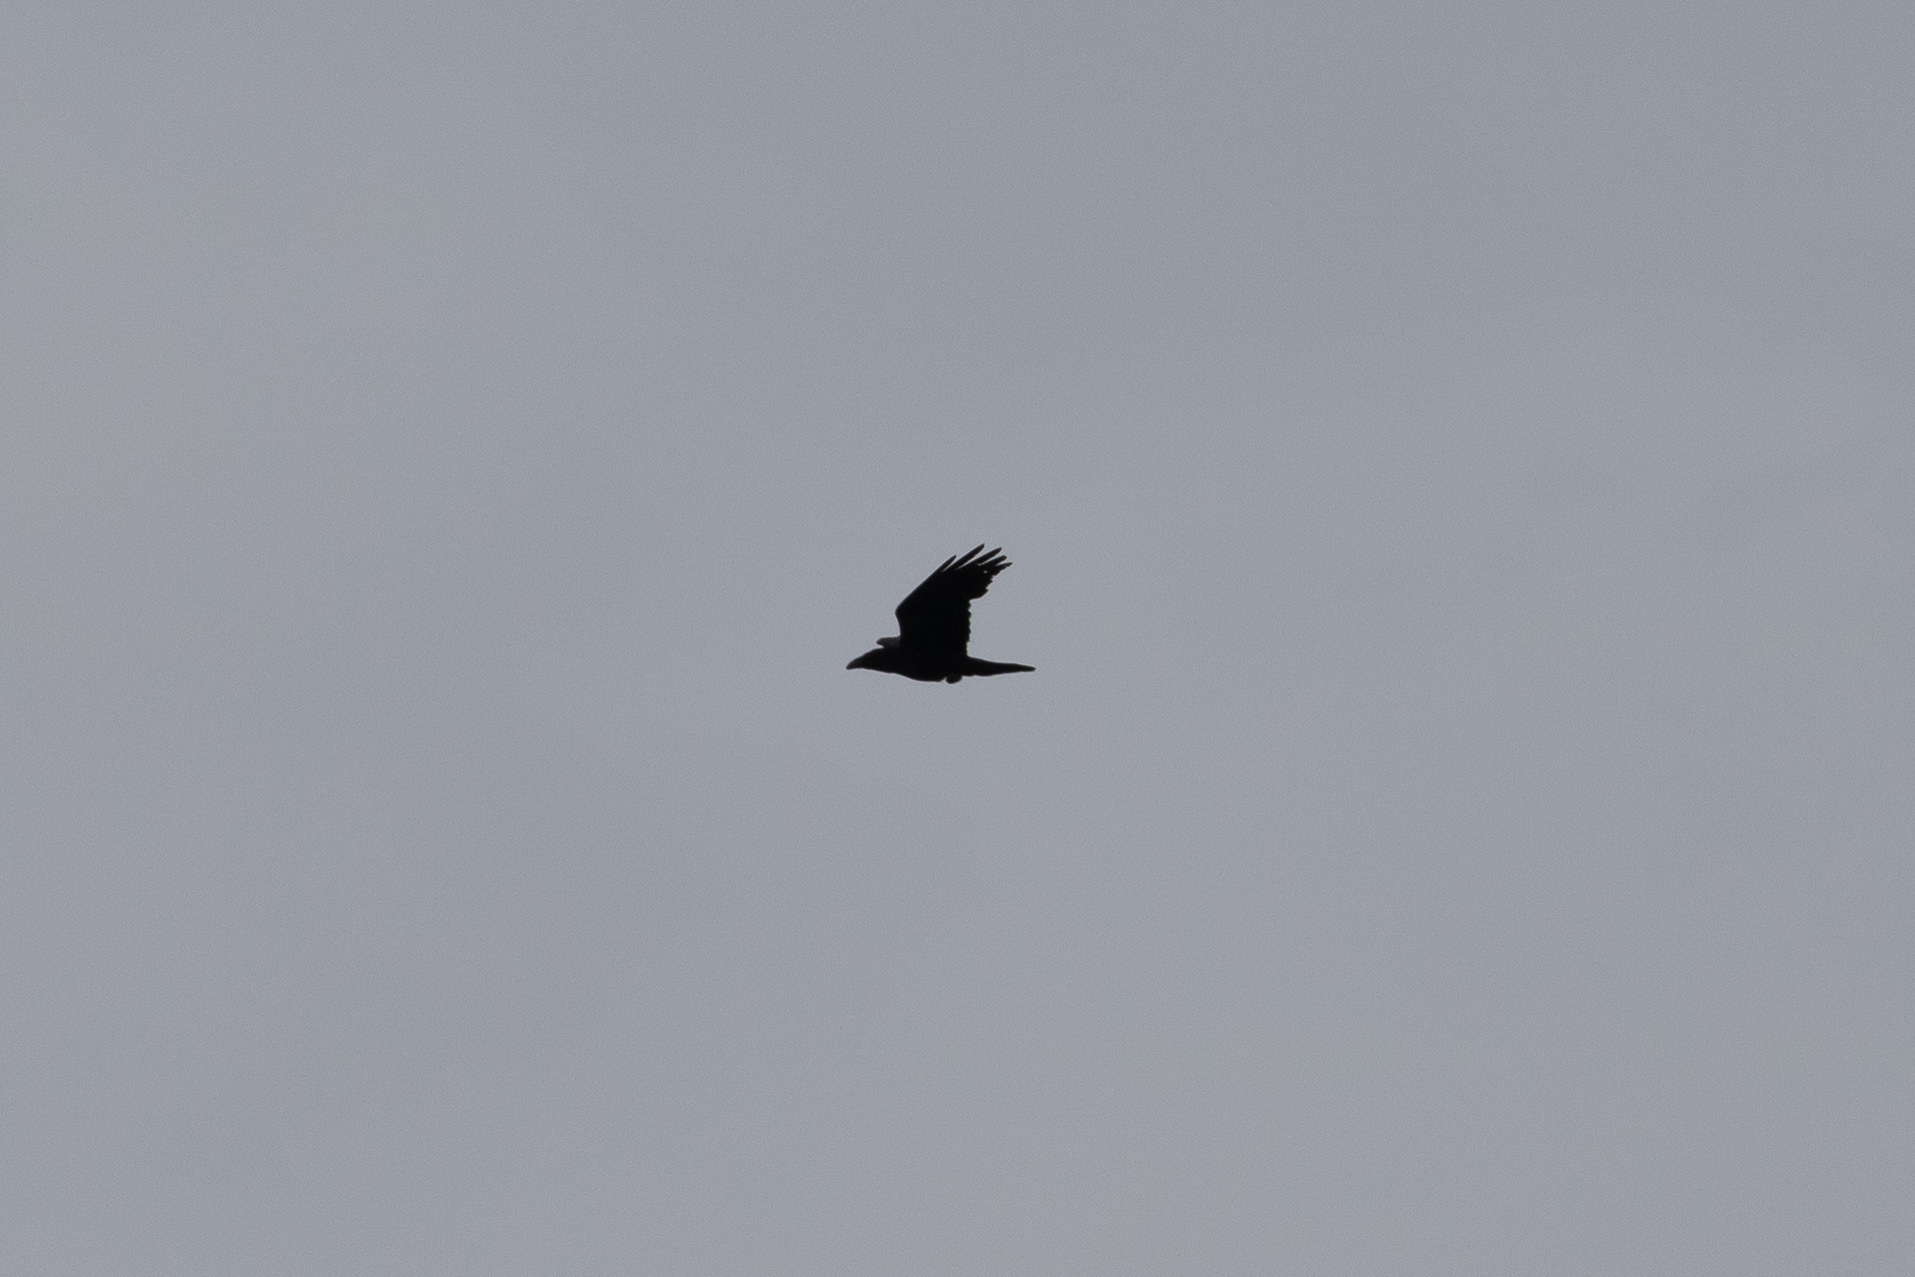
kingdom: Animalia
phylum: Chordata
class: Aves
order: Passeriformes
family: Corvidae
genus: Corvus
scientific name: Corvus corax
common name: Common raven
